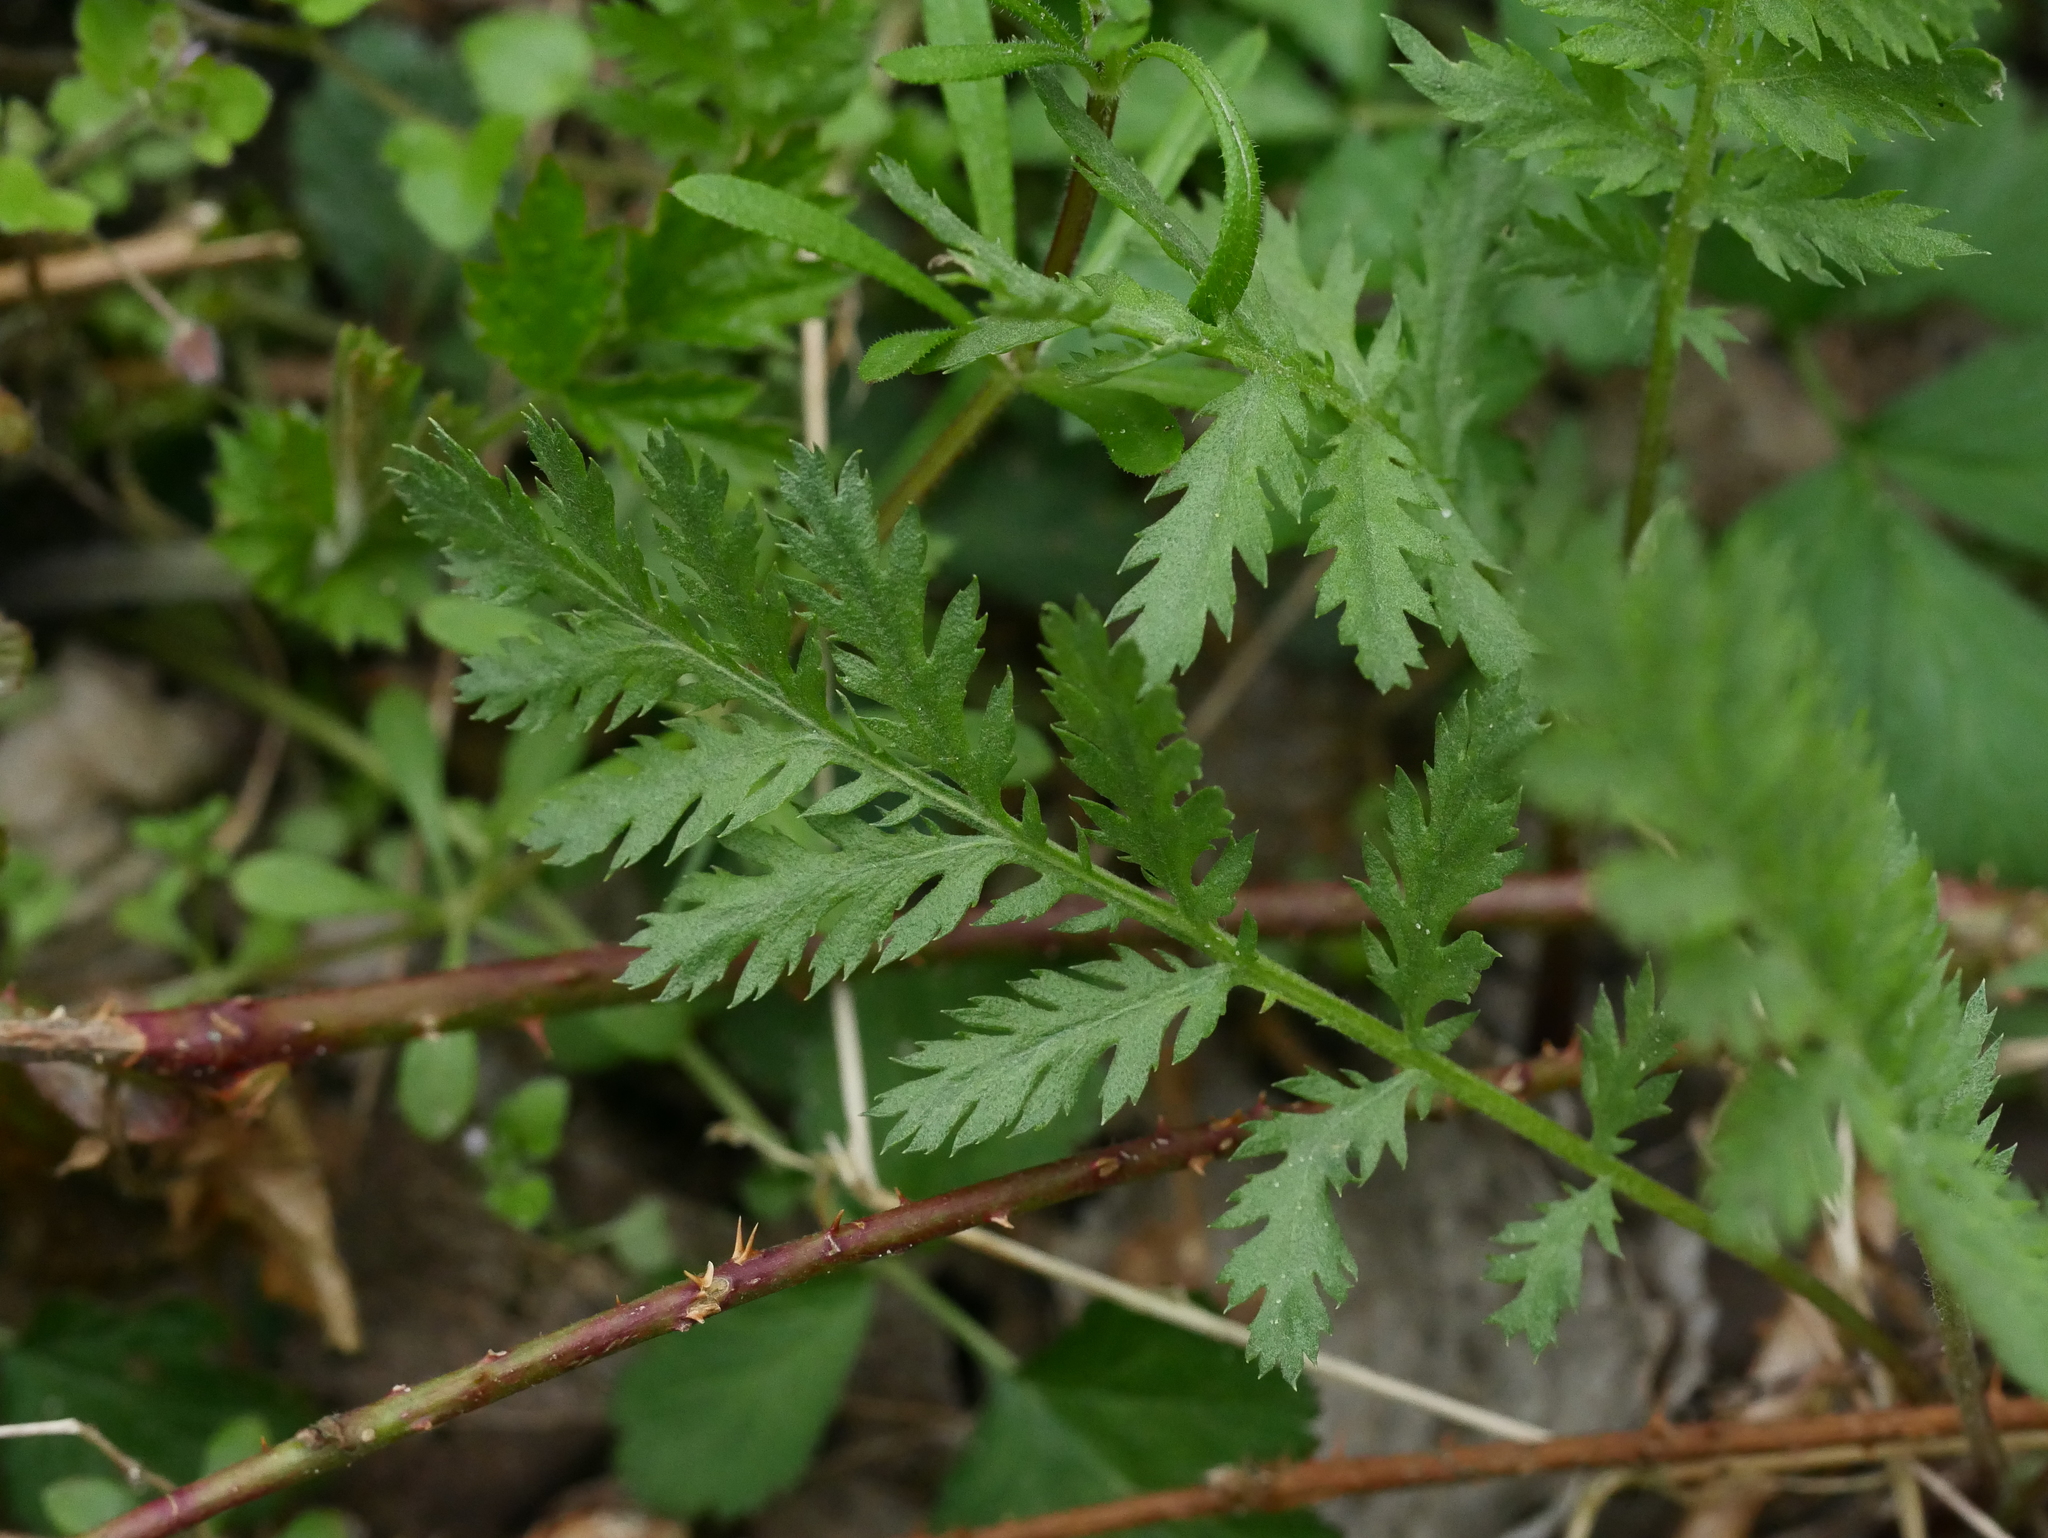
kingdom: Plantae
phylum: Tracheophyta
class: Magnoliopsida
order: Asterales
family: Asteraceae
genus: Tanacetum
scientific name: Tanacetum vulgare
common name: Common tansy
